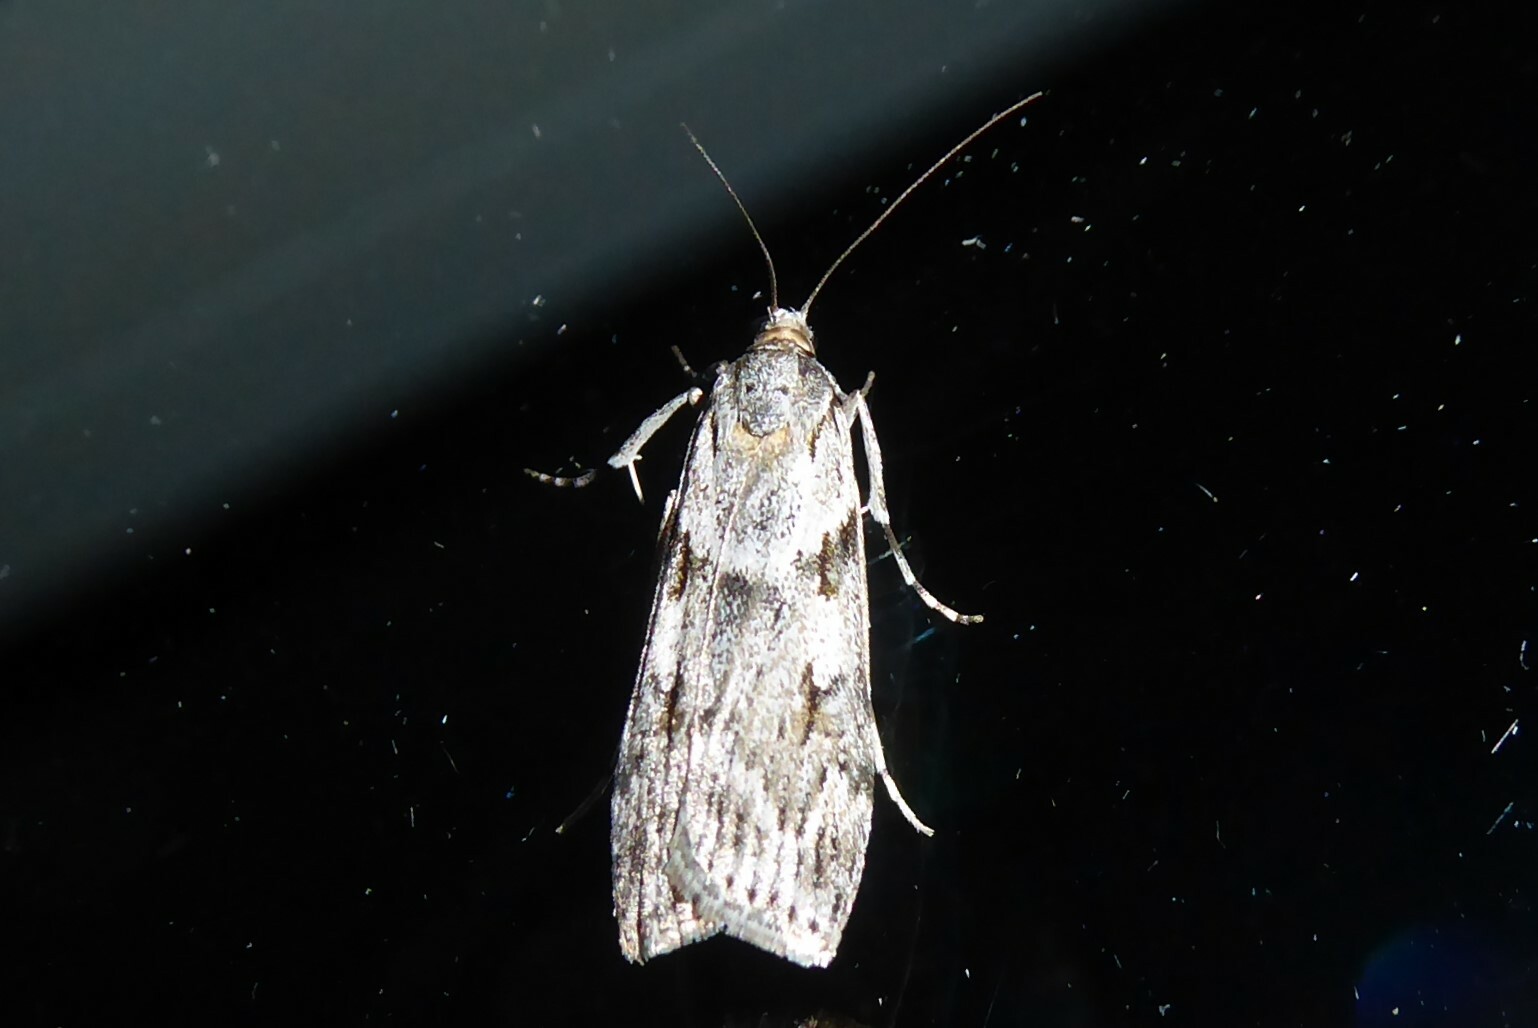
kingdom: Animalia
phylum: Arthropoda
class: Insecta
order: Lepidoptera
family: Crambidae
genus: Scoparia
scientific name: Scoparia halopis
